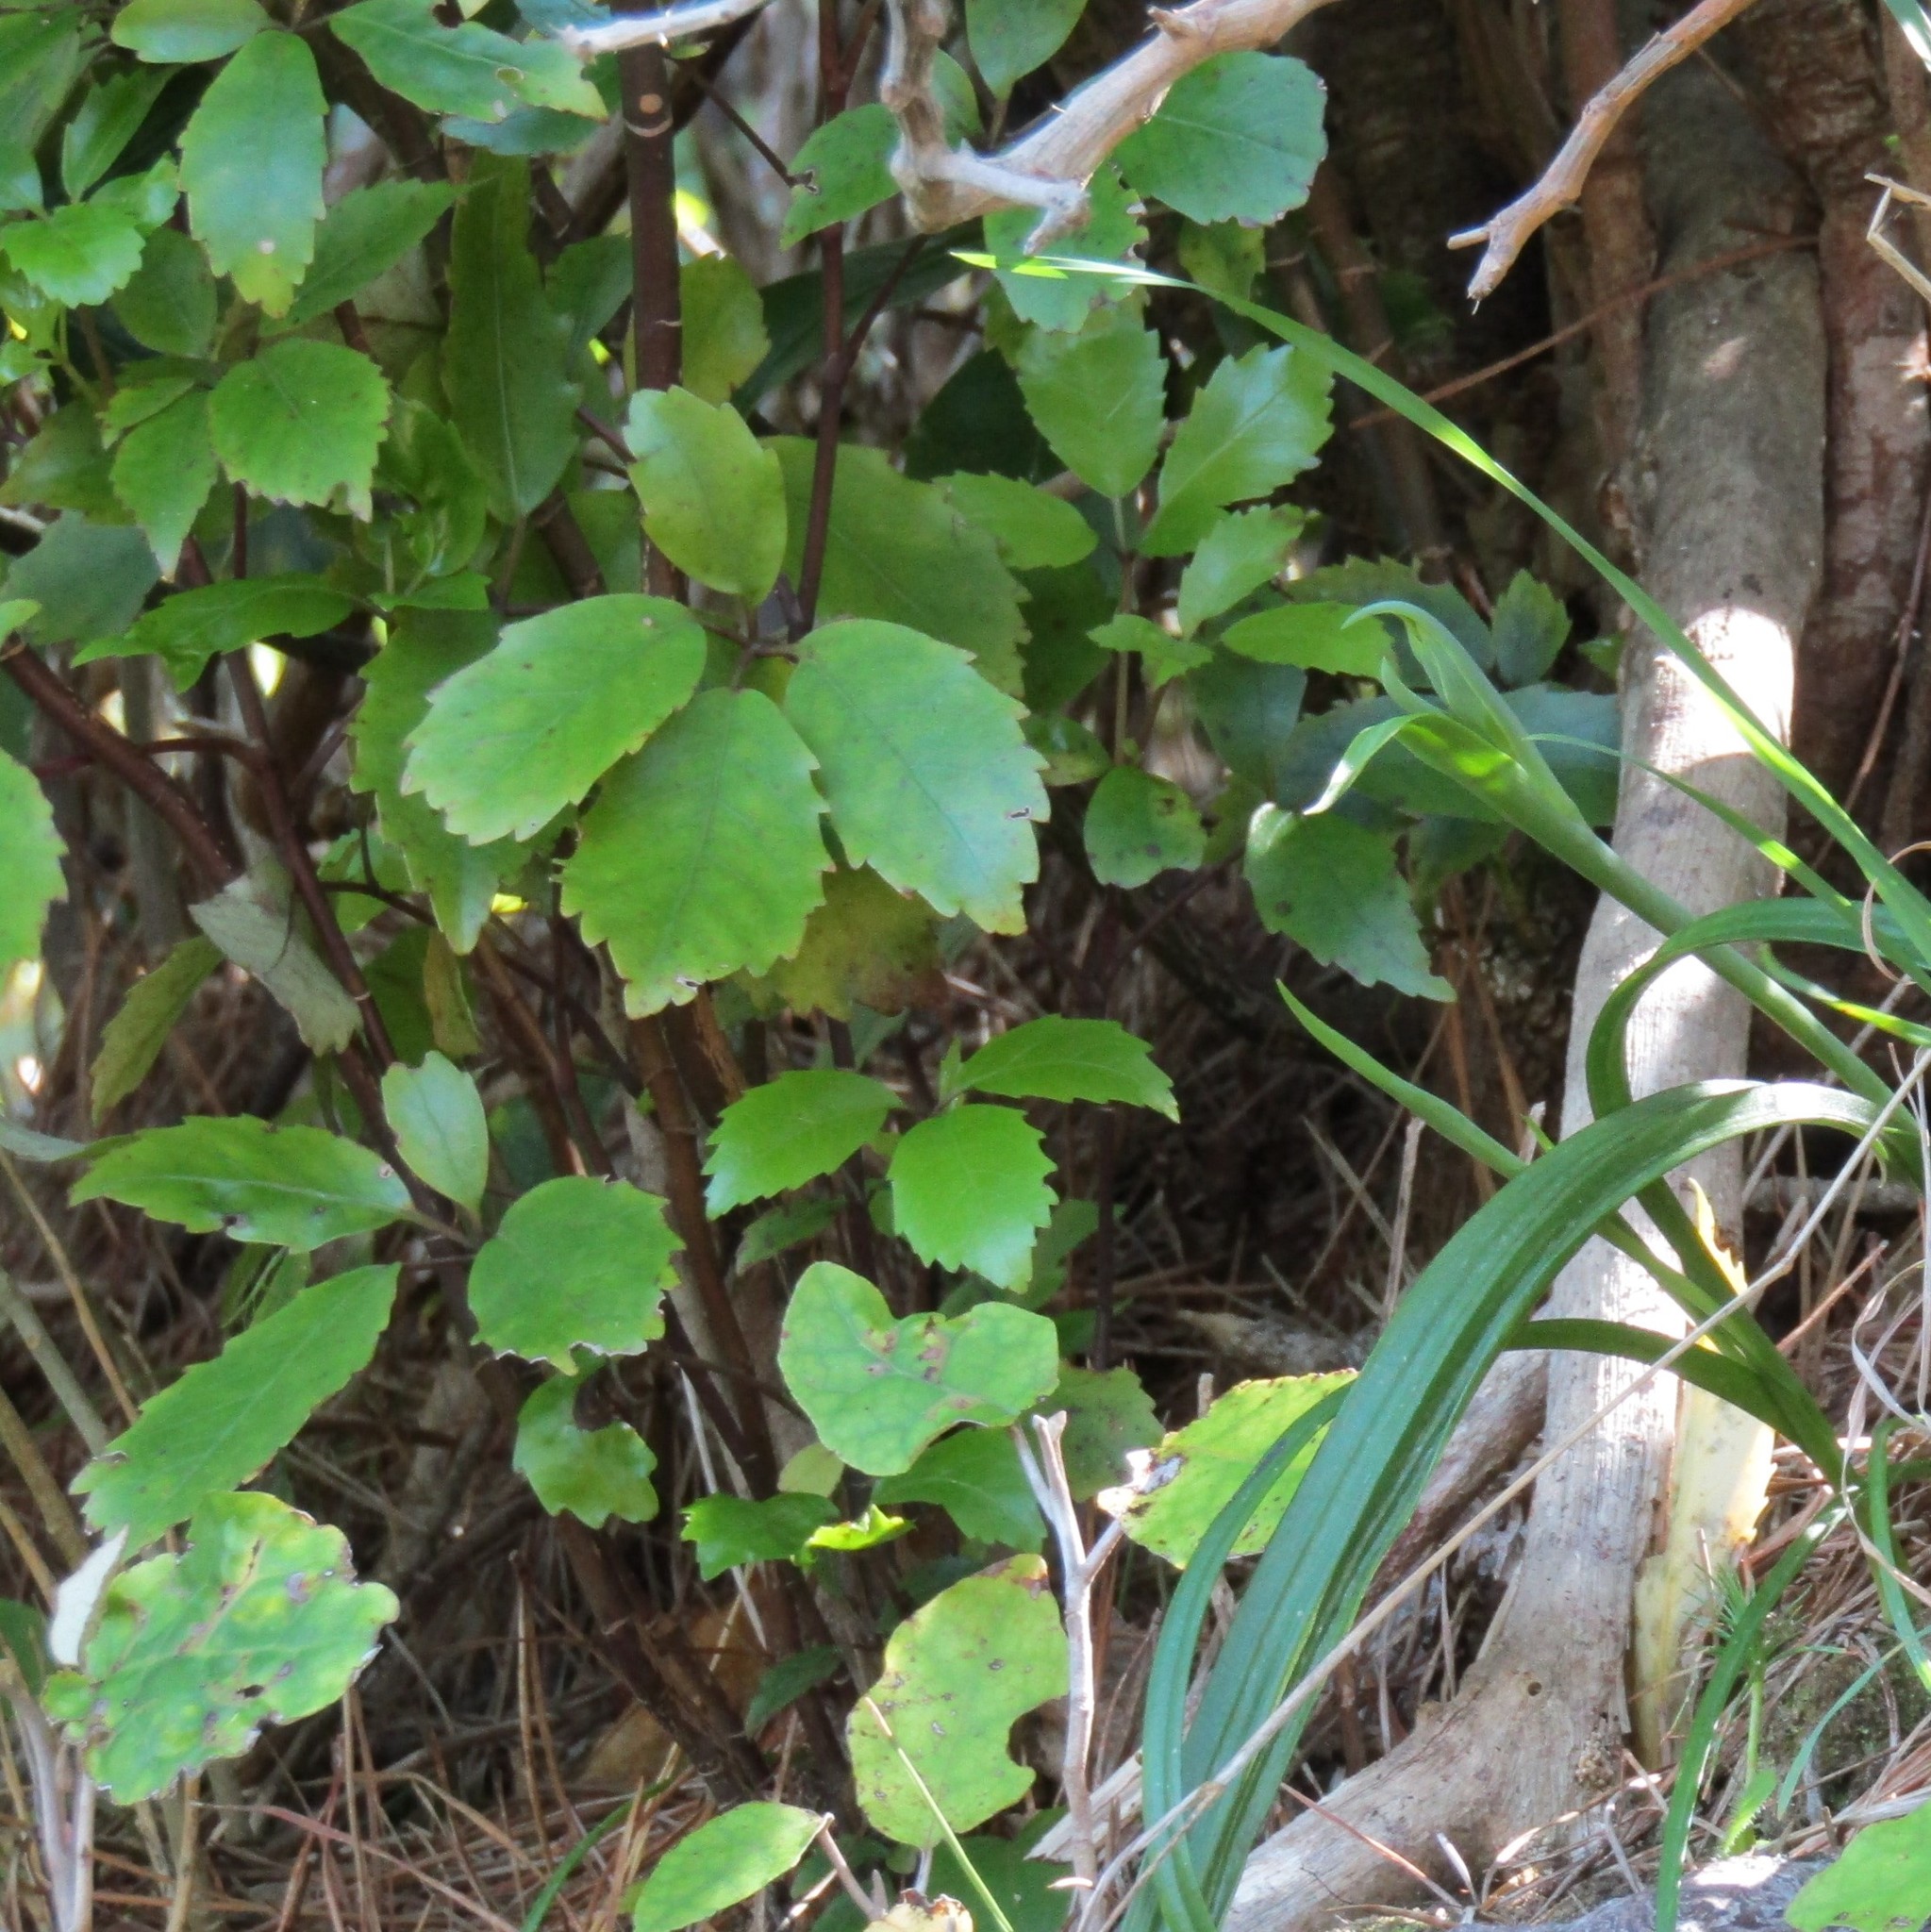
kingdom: Plantae
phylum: Tracheophyta
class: Magnoliopsida
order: Apiales
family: Araliaceae
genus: Neopanax
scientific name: Neopanax arboreus
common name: Five-fingers
